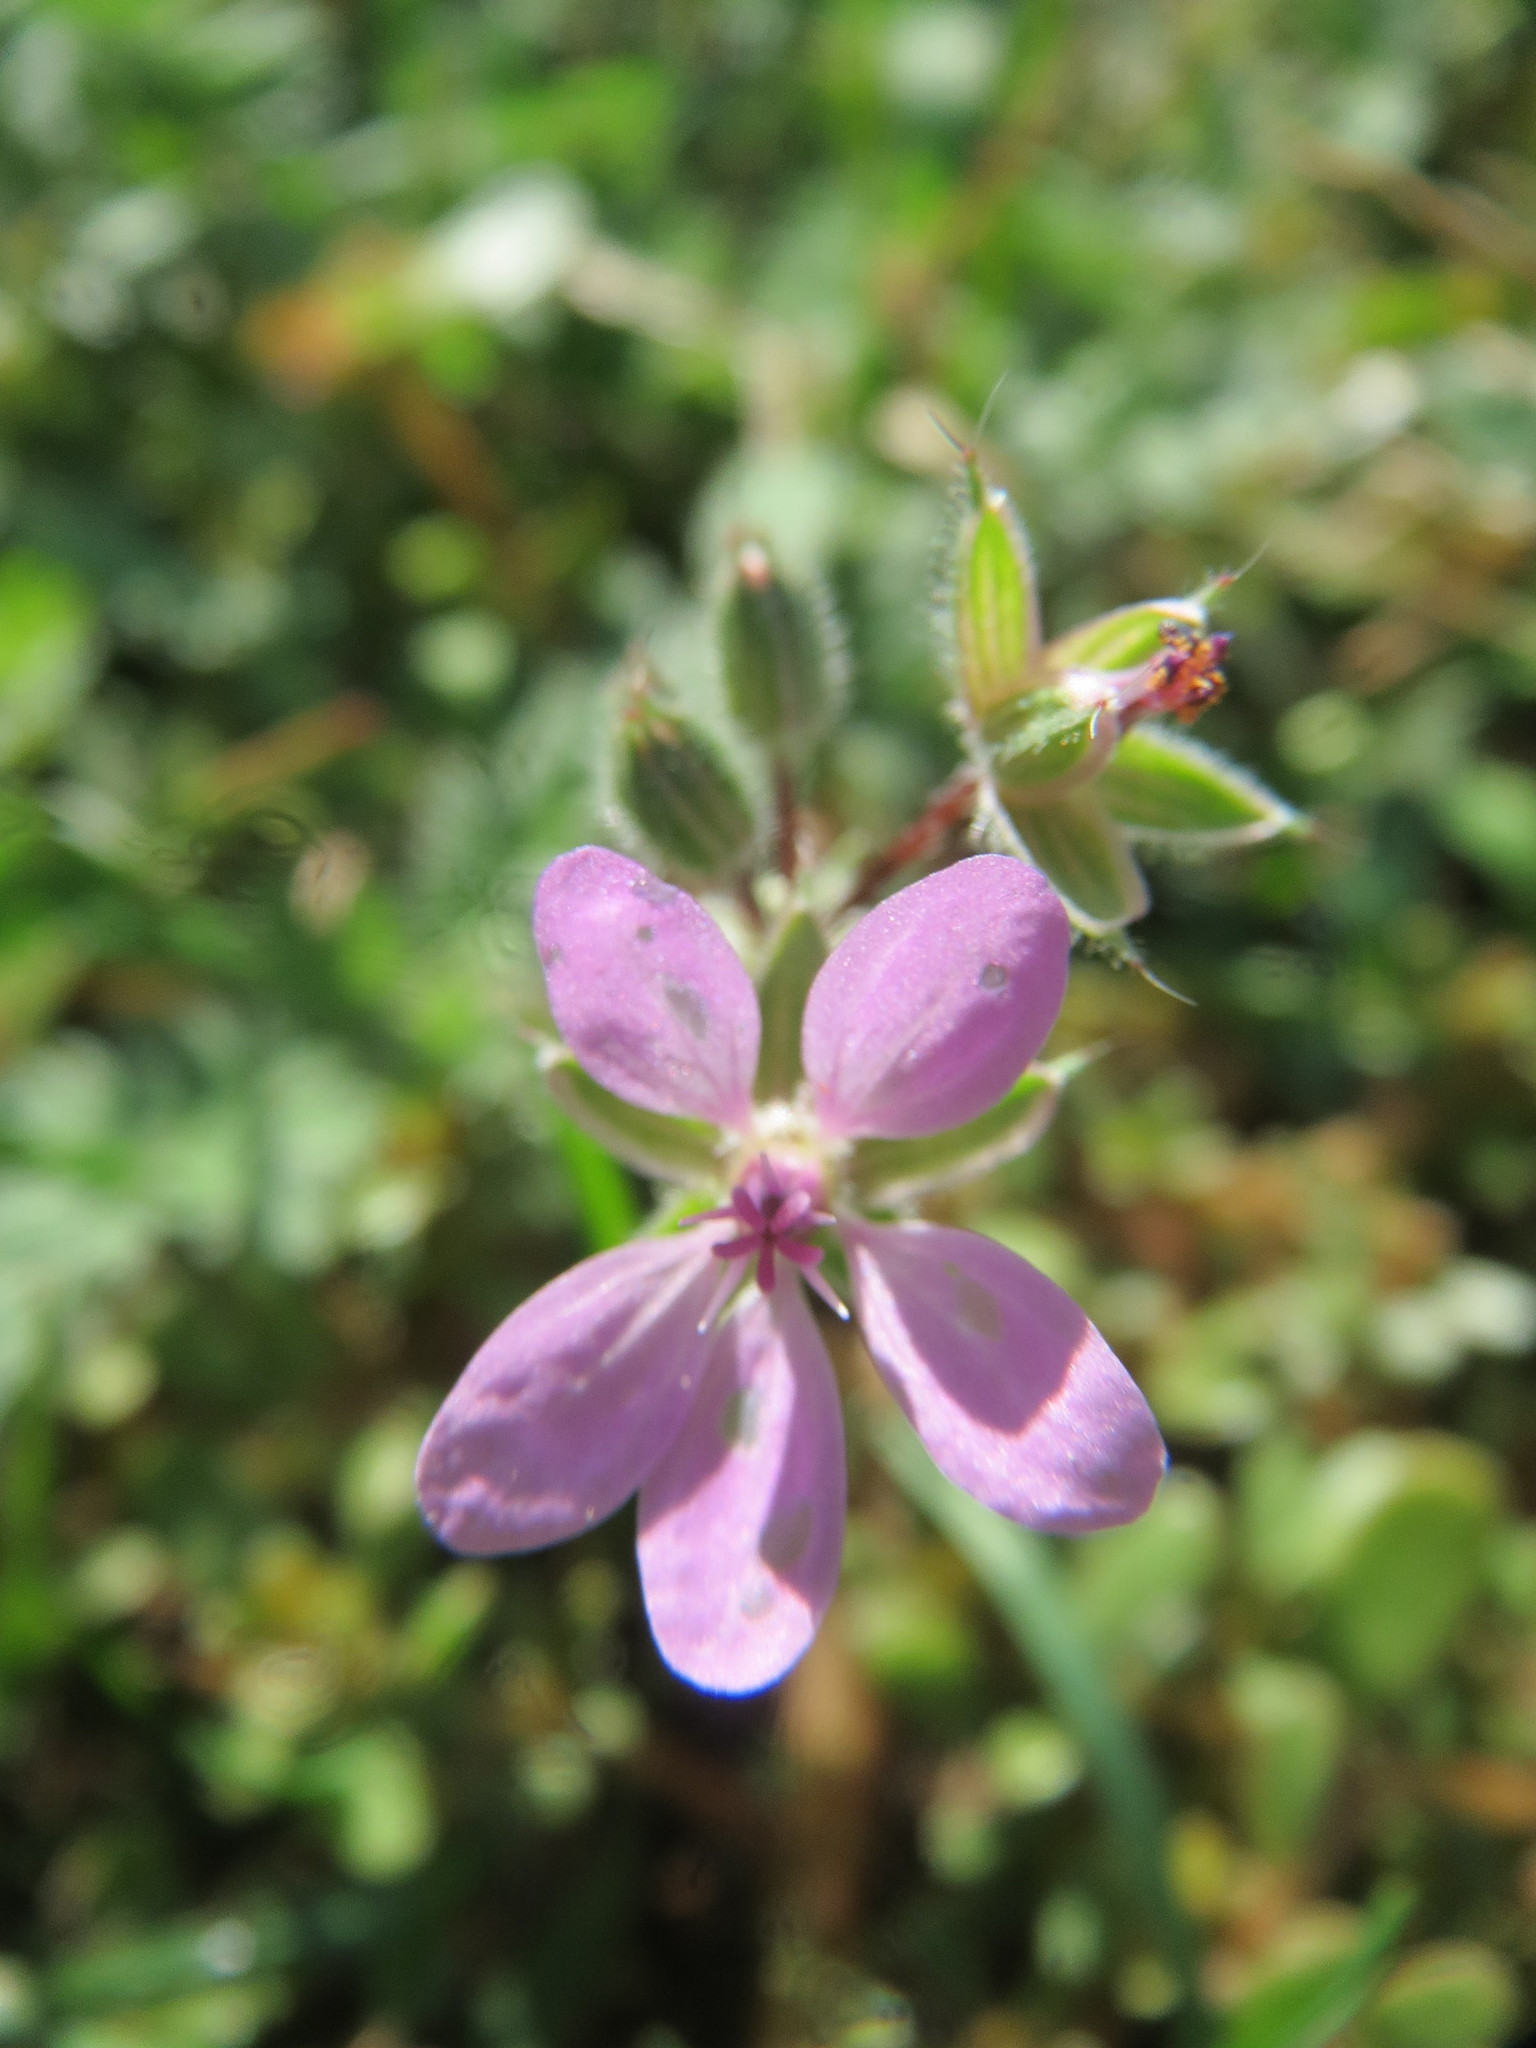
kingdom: Plantae
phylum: Tracheophyta
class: Magnoliopsida
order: Geraniales
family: Geraniaceae
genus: Erodium
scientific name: Erodium cicutarium
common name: Common stork's-bill
